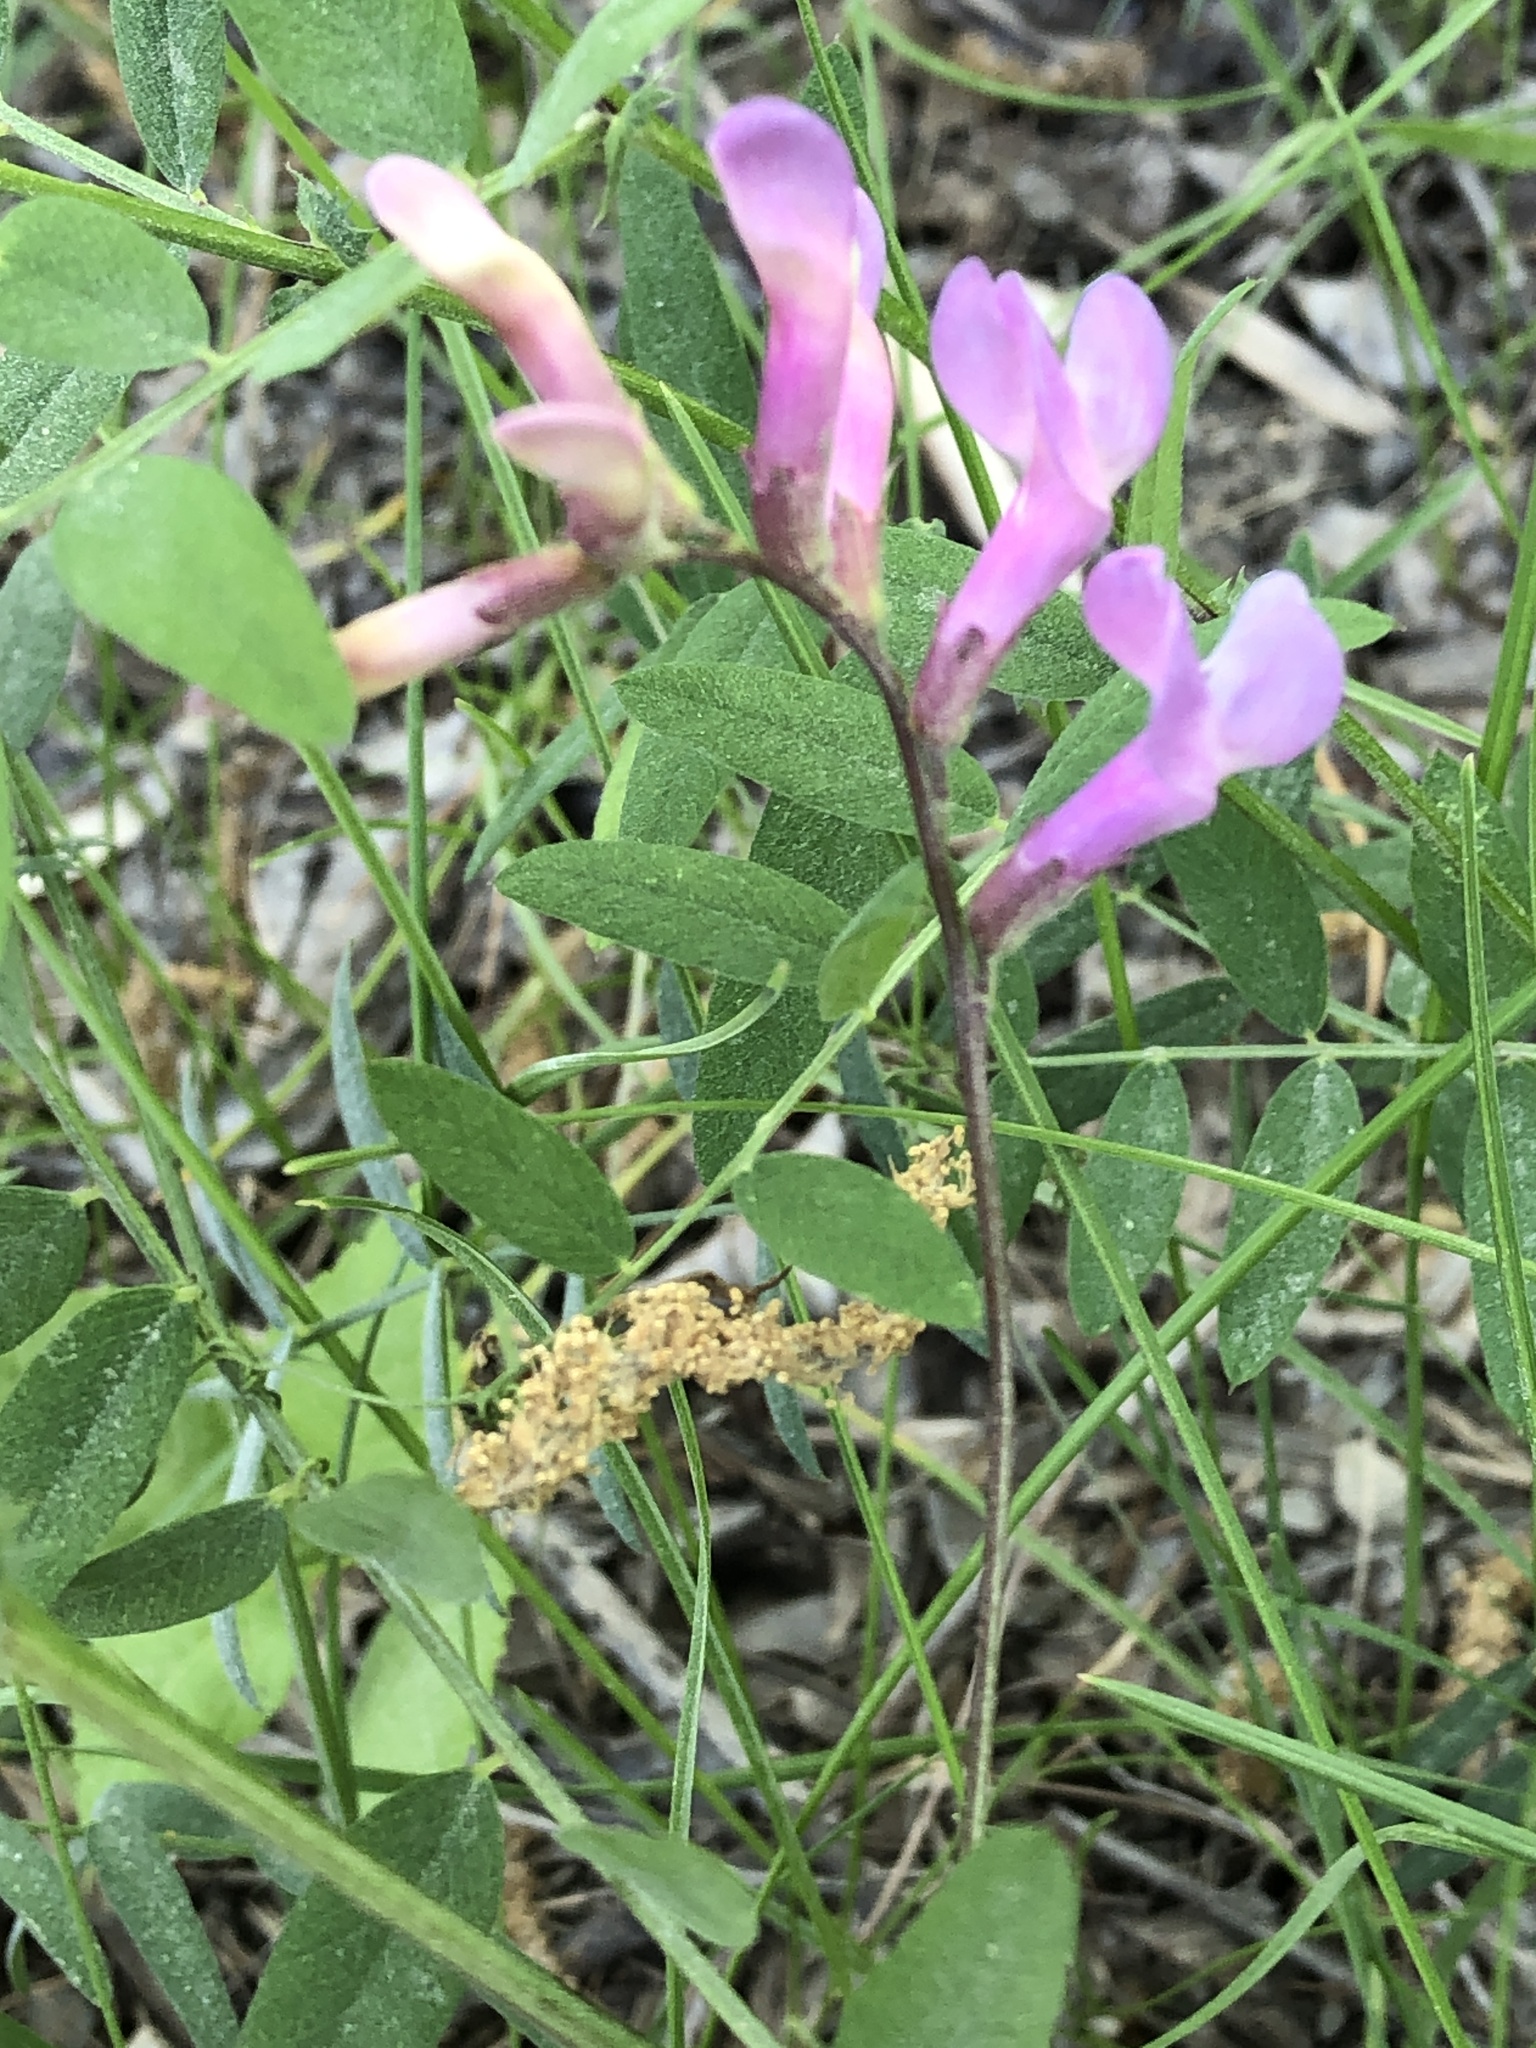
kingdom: Plantae
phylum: Tracheophyta
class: Magnoliopsida
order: Fabales
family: Fabaceae
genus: Vicia
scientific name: Vicia americana
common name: American vetch
